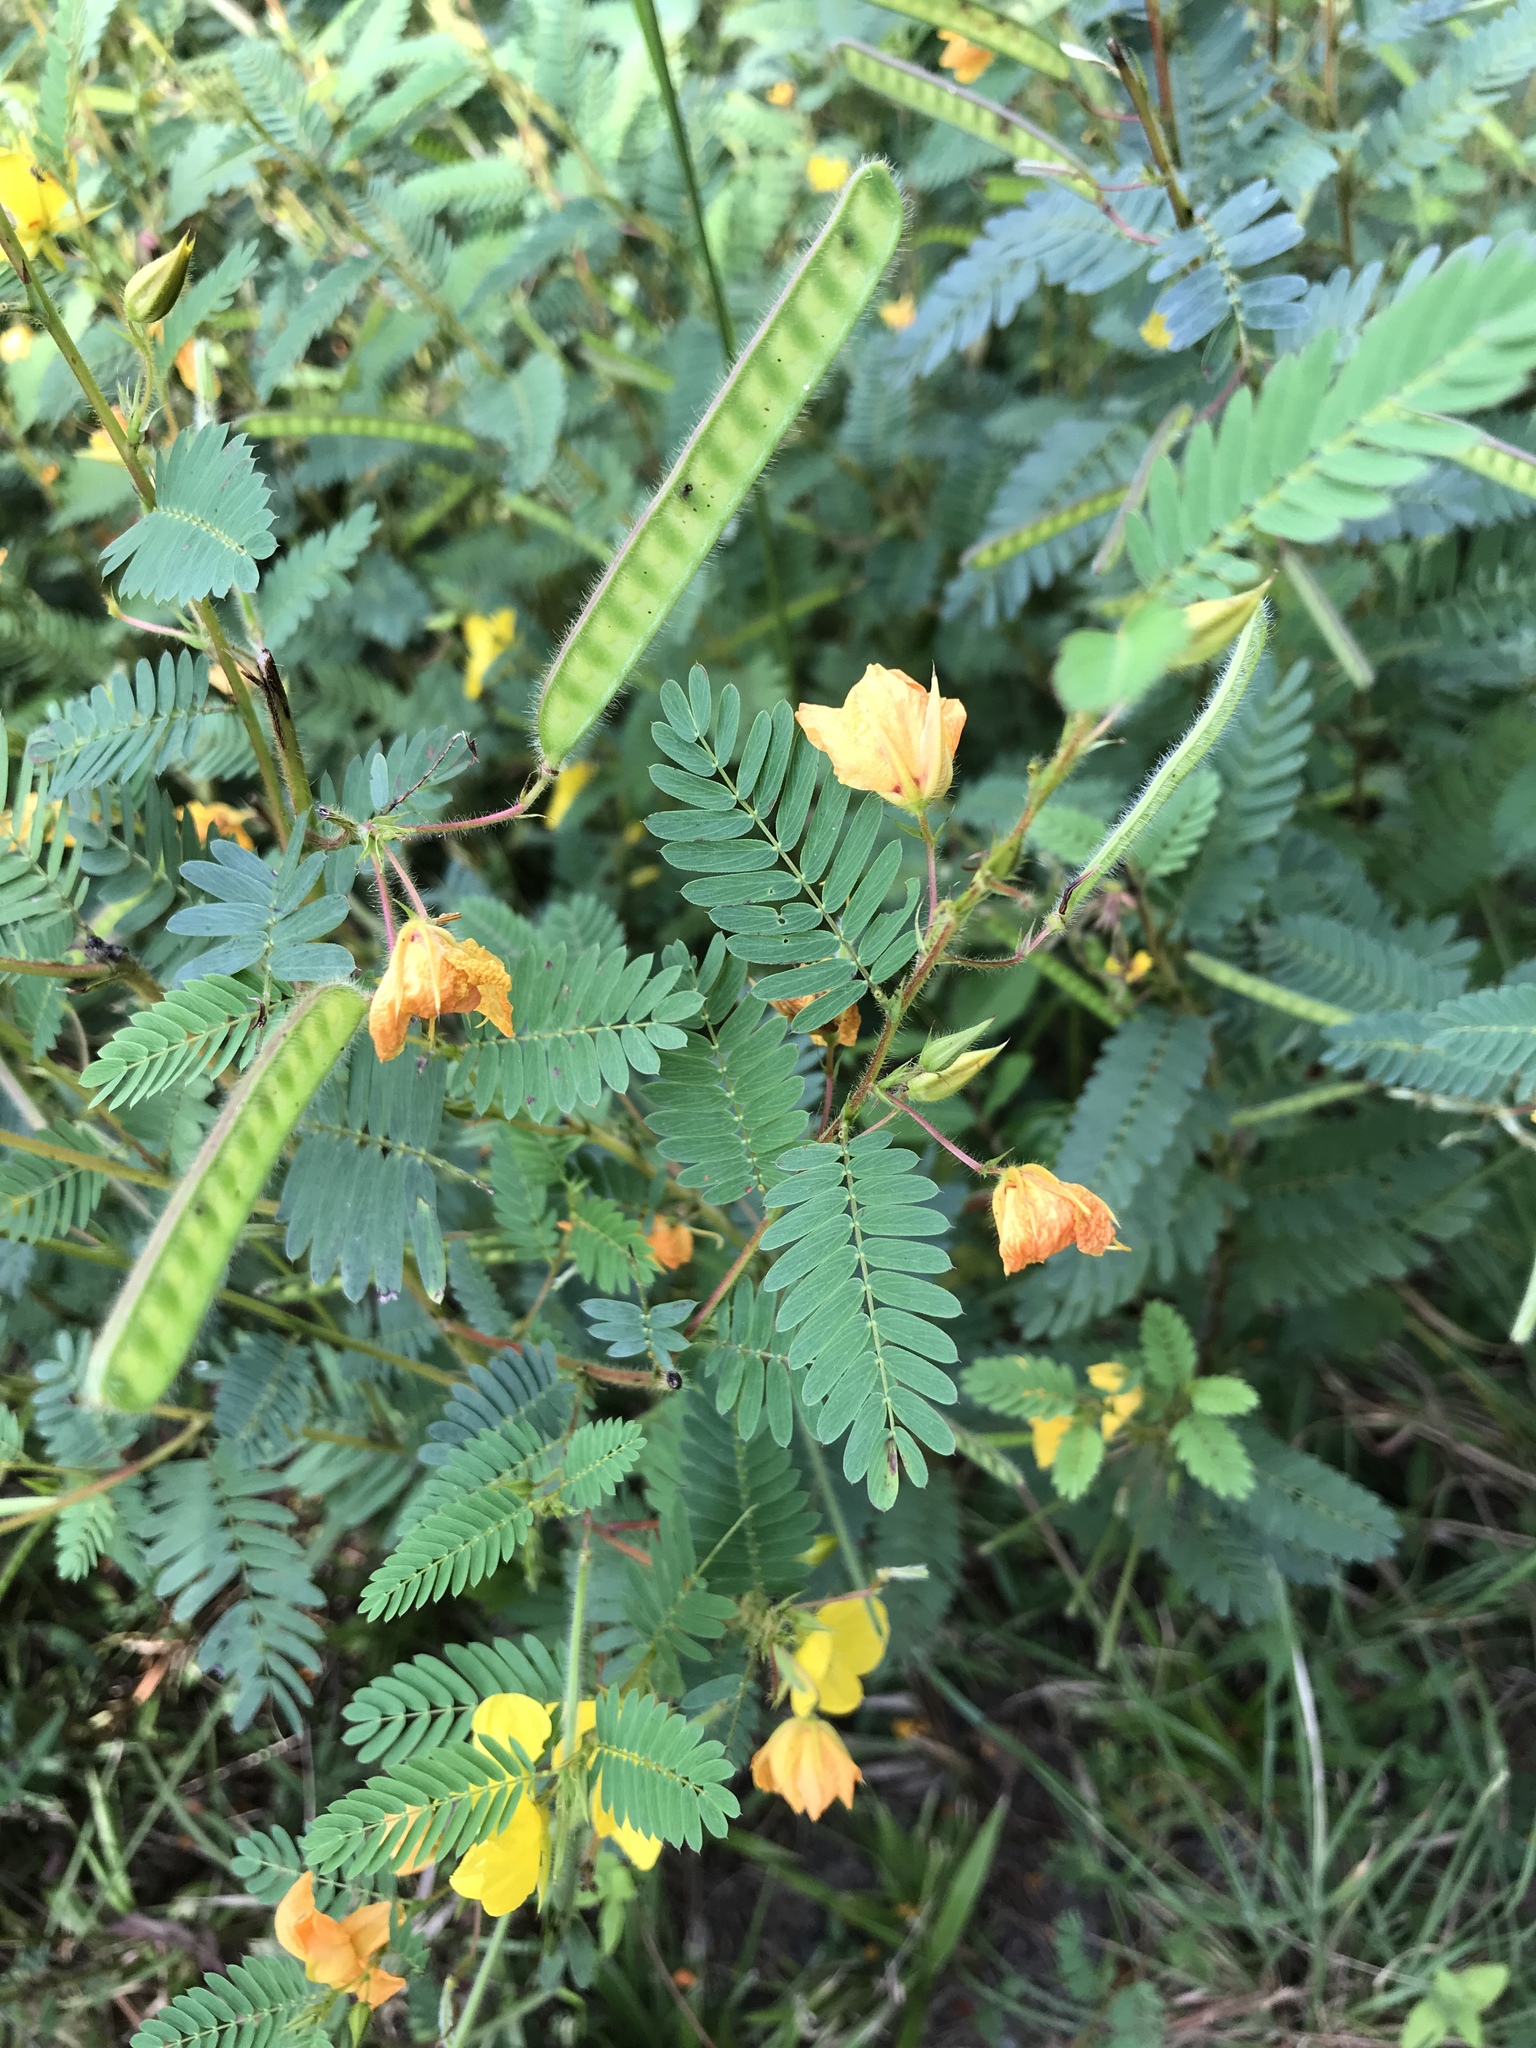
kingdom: Plantae
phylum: Tracheophyta
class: Magnoliopsida
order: Fabales
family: Fabaceae
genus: Chamaecrista
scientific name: Chamaecrista fasciculata
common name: Golden cassia
